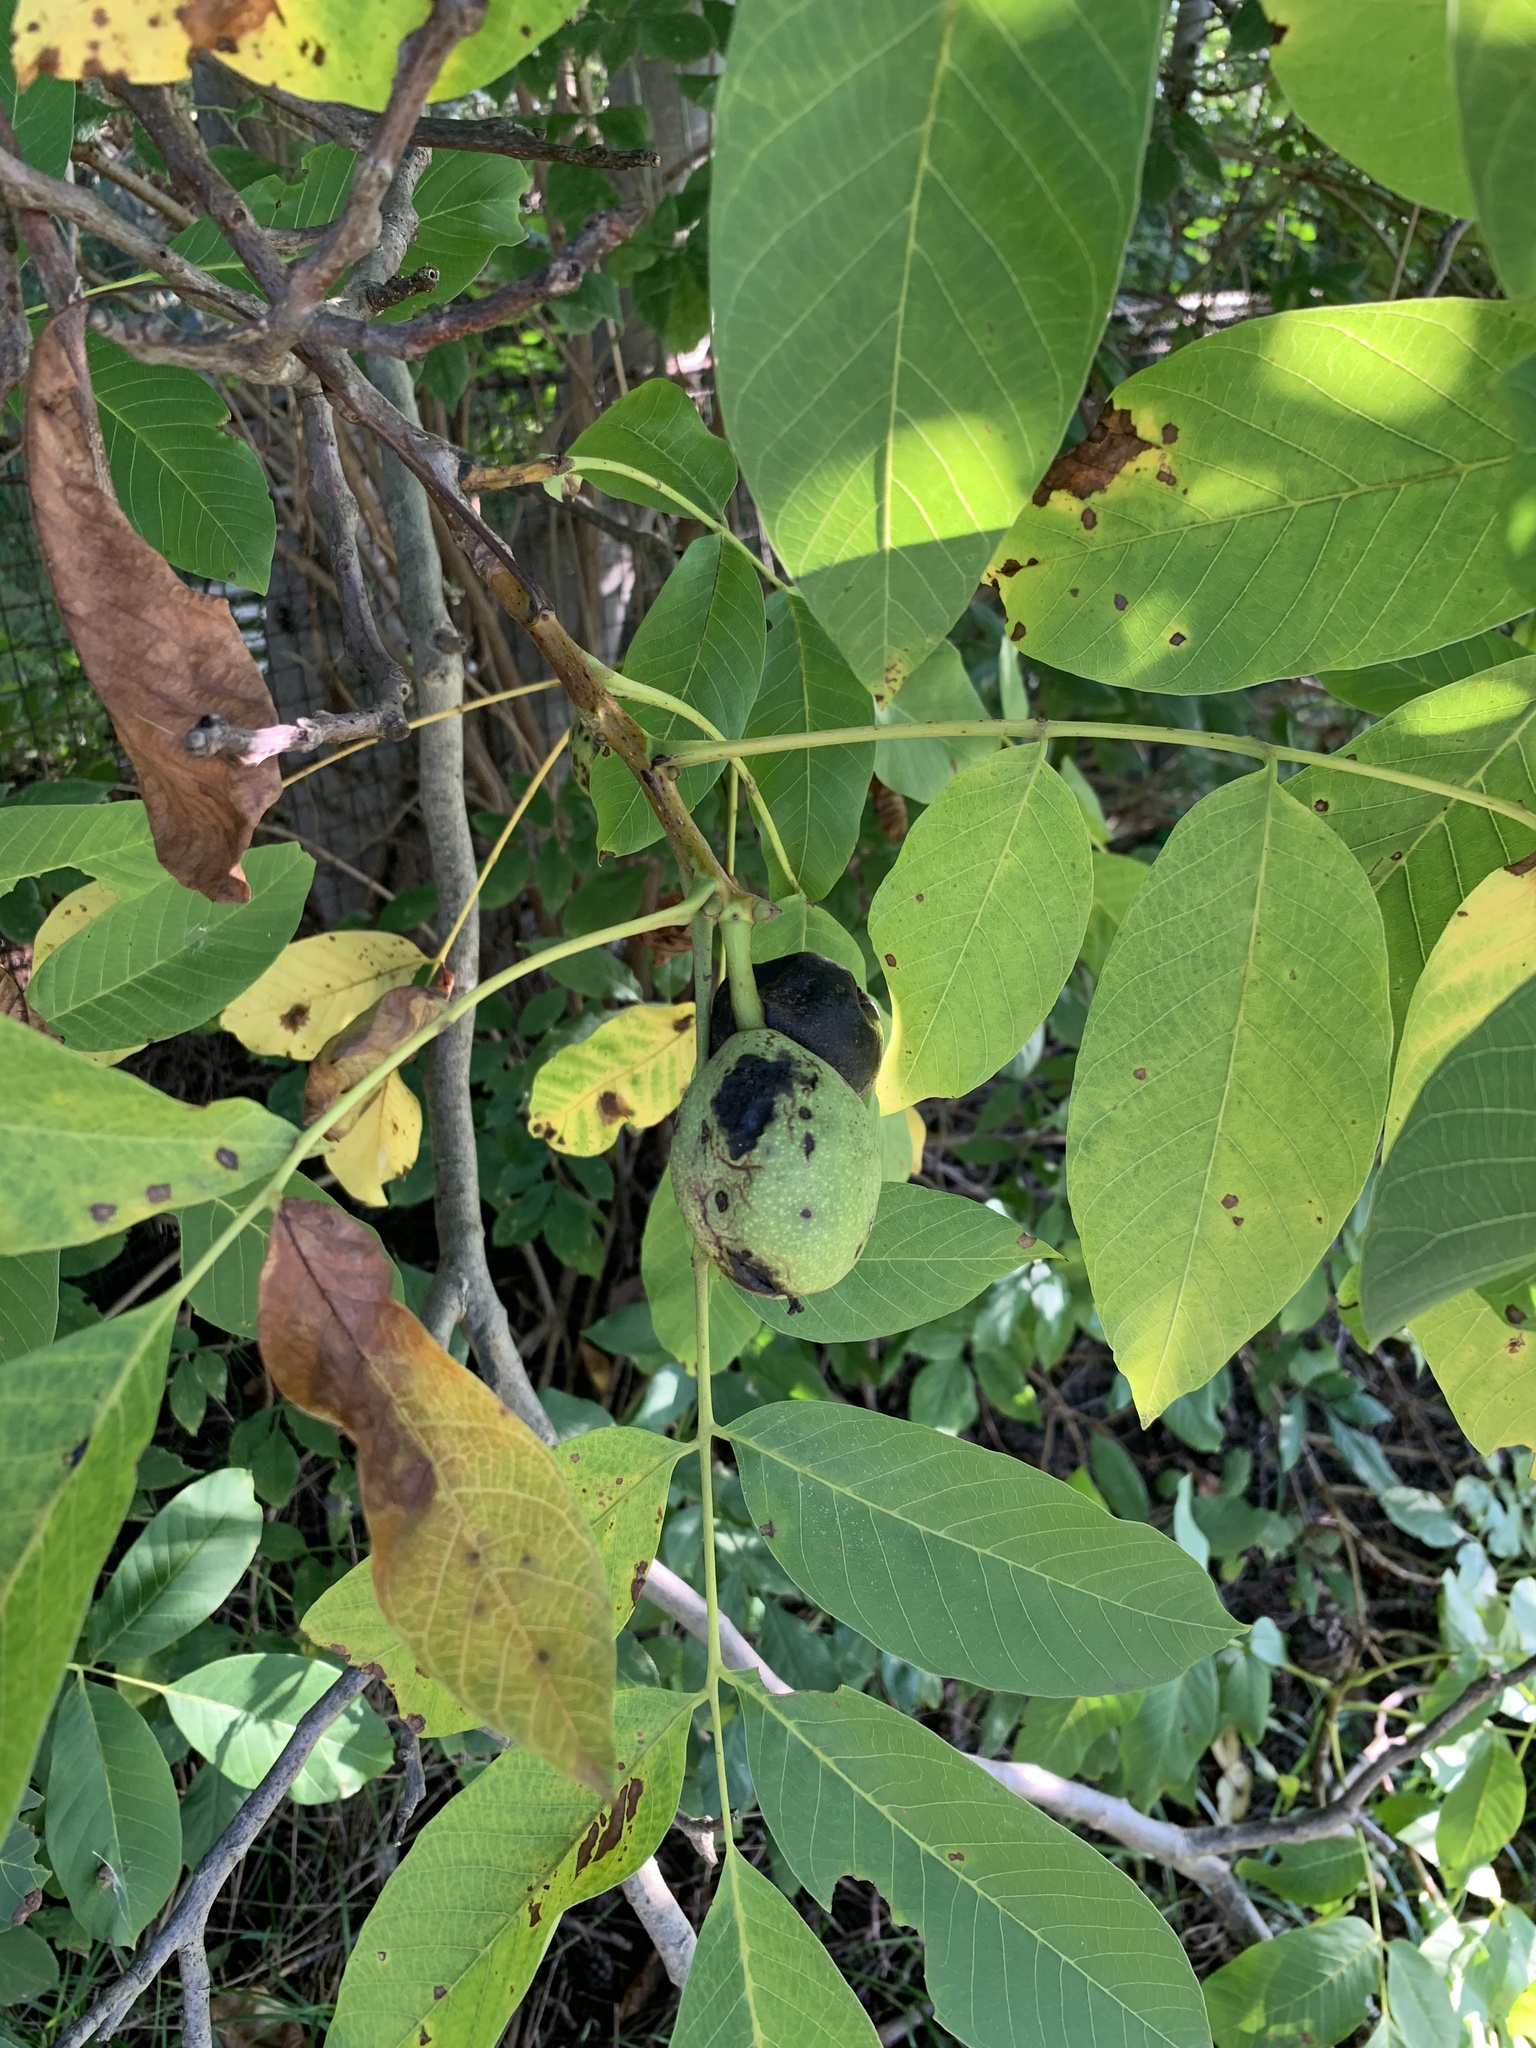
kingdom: Plantae
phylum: Tracheophyta
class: Magnoliopsida
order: Fagales
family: Juglandaceae
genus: Juglans
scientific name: Juglans regia
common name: Walnut
